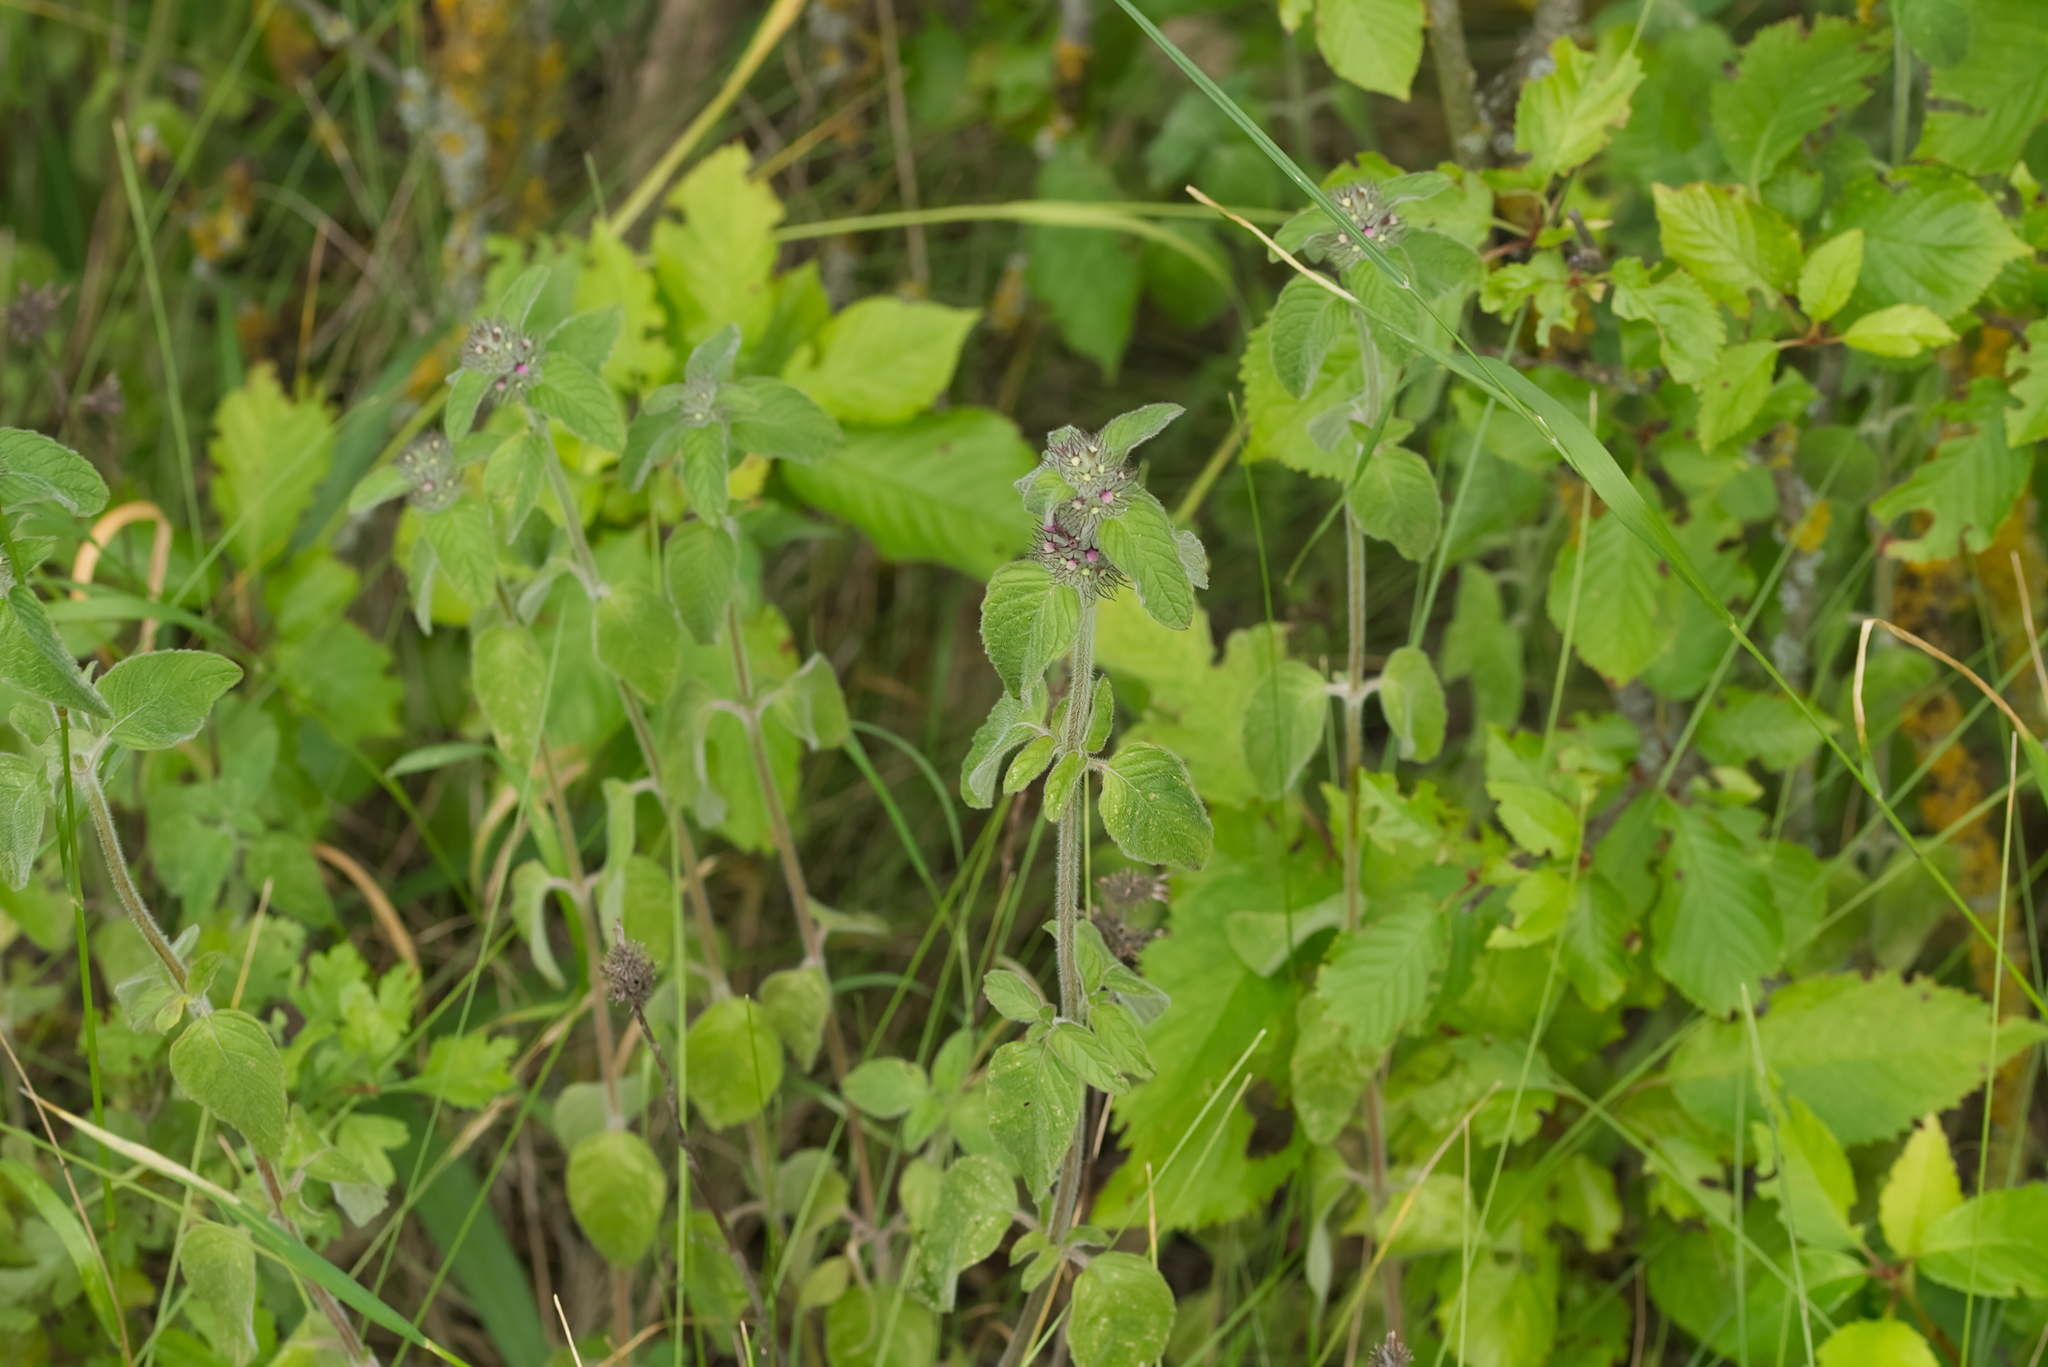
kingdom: Plantae
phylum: Tracheophyta
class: Magnoliopsida
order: Lamiales
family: Lamiaceae
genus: Clinopodium
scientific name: Clinopodium vulgare
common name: Wild basil
